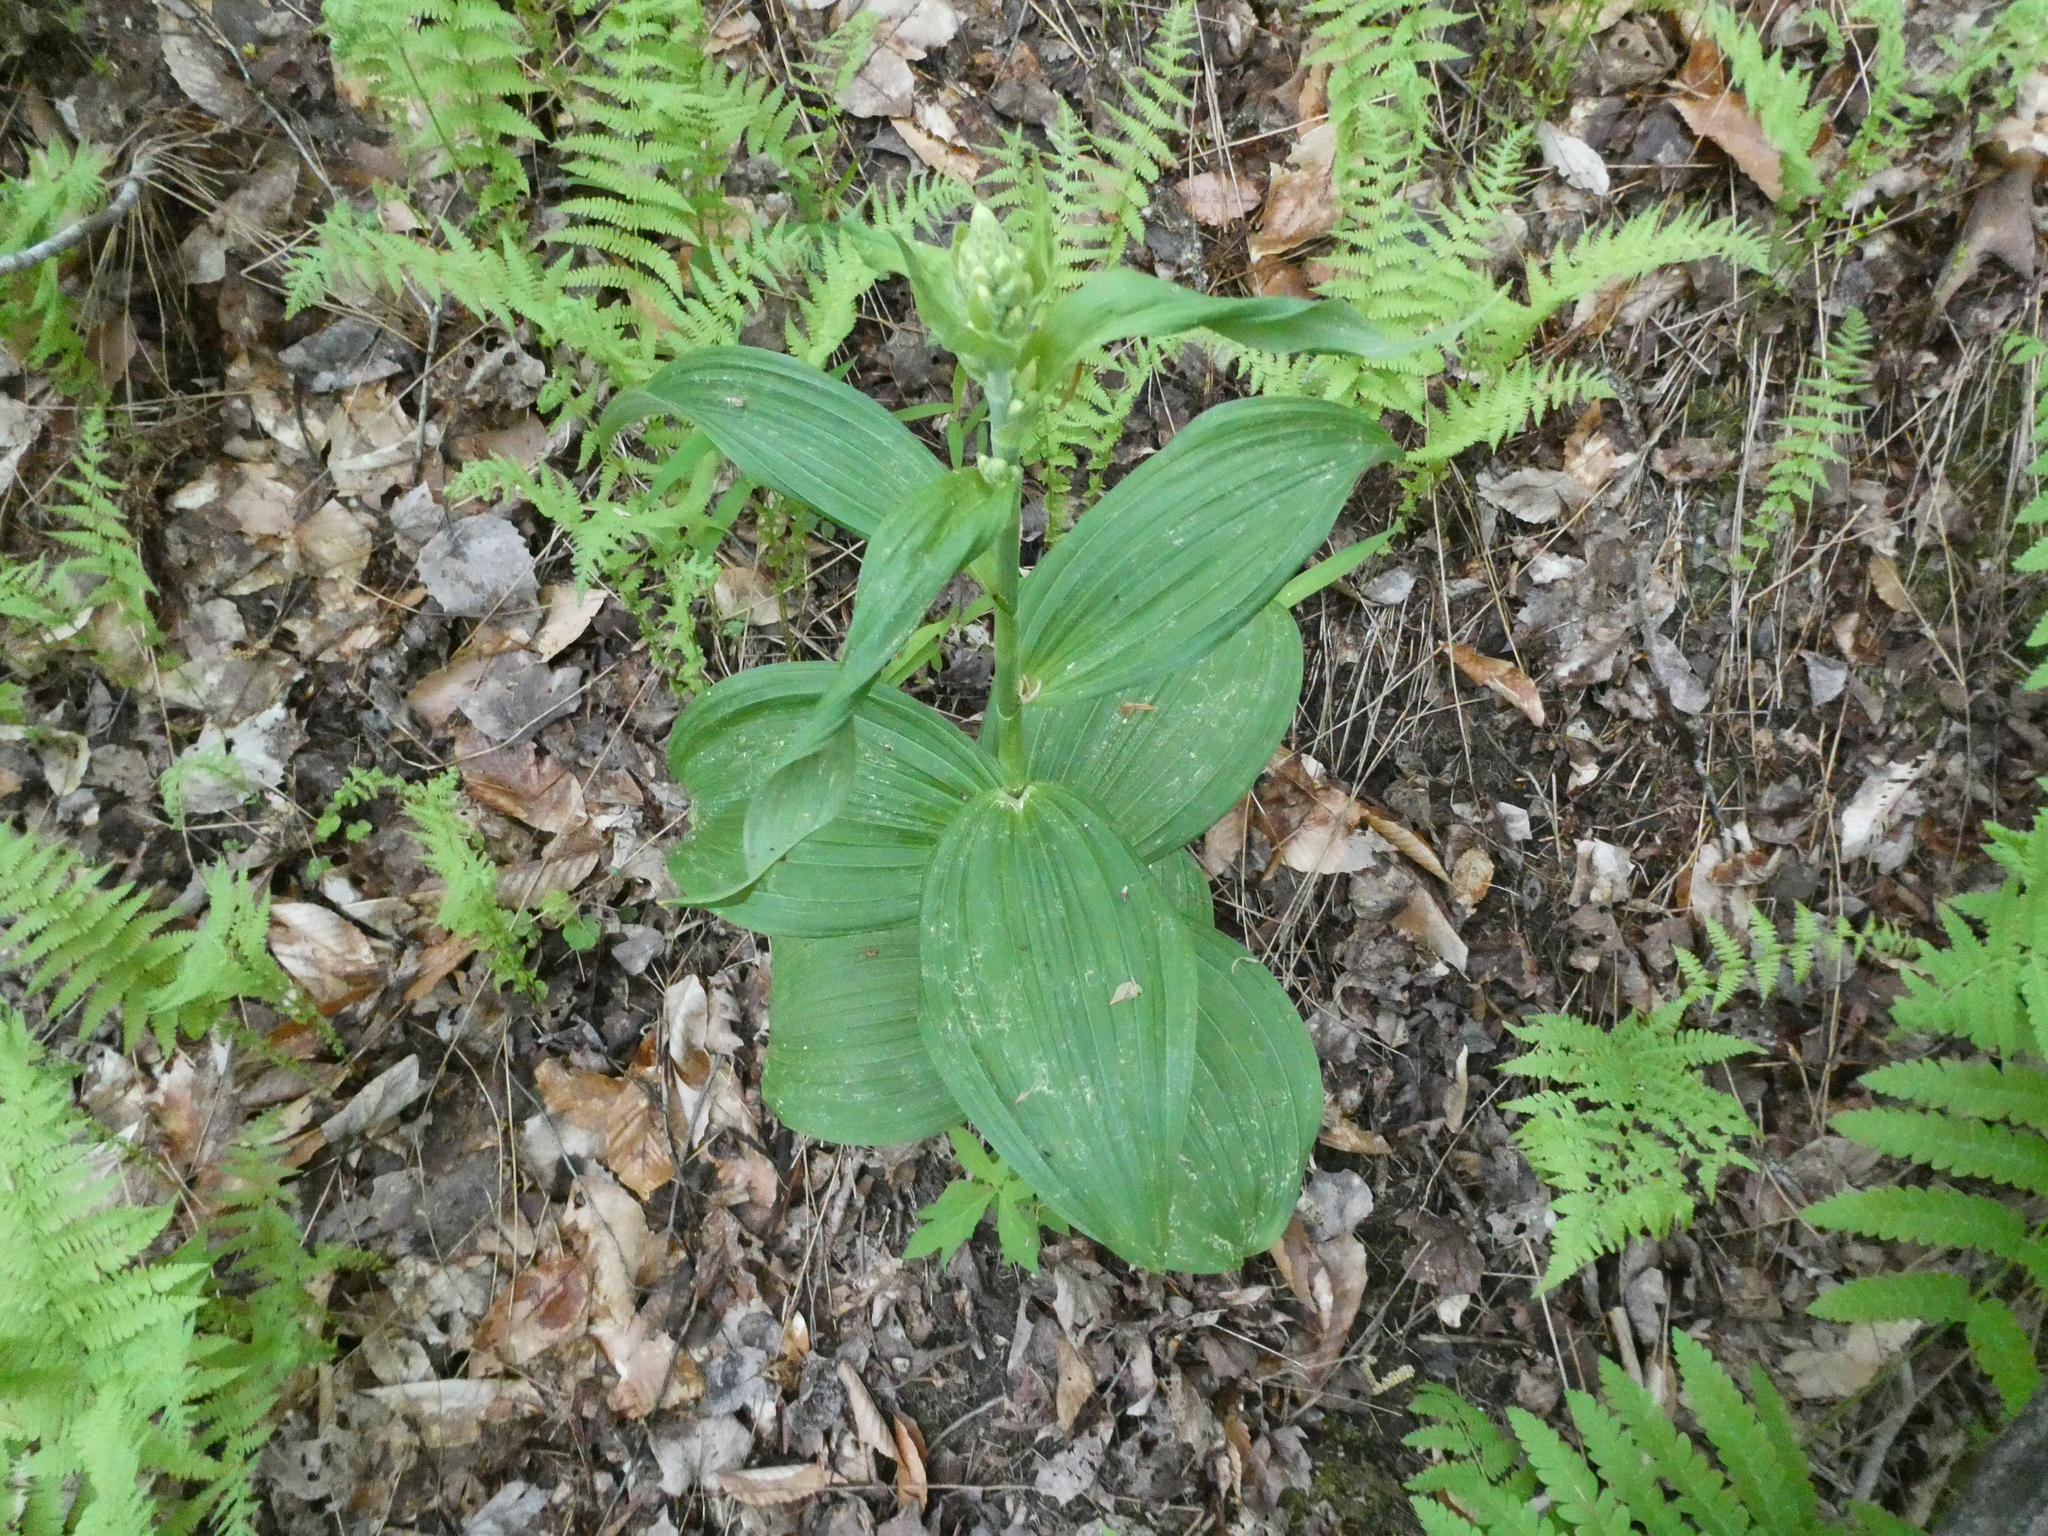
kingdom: Plantae
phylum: Tracheophyta
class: Liliopsida
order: Liliales
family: Melanthiaceae
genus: Veratrum
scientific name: Veratrum viride
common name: American false hellebore
